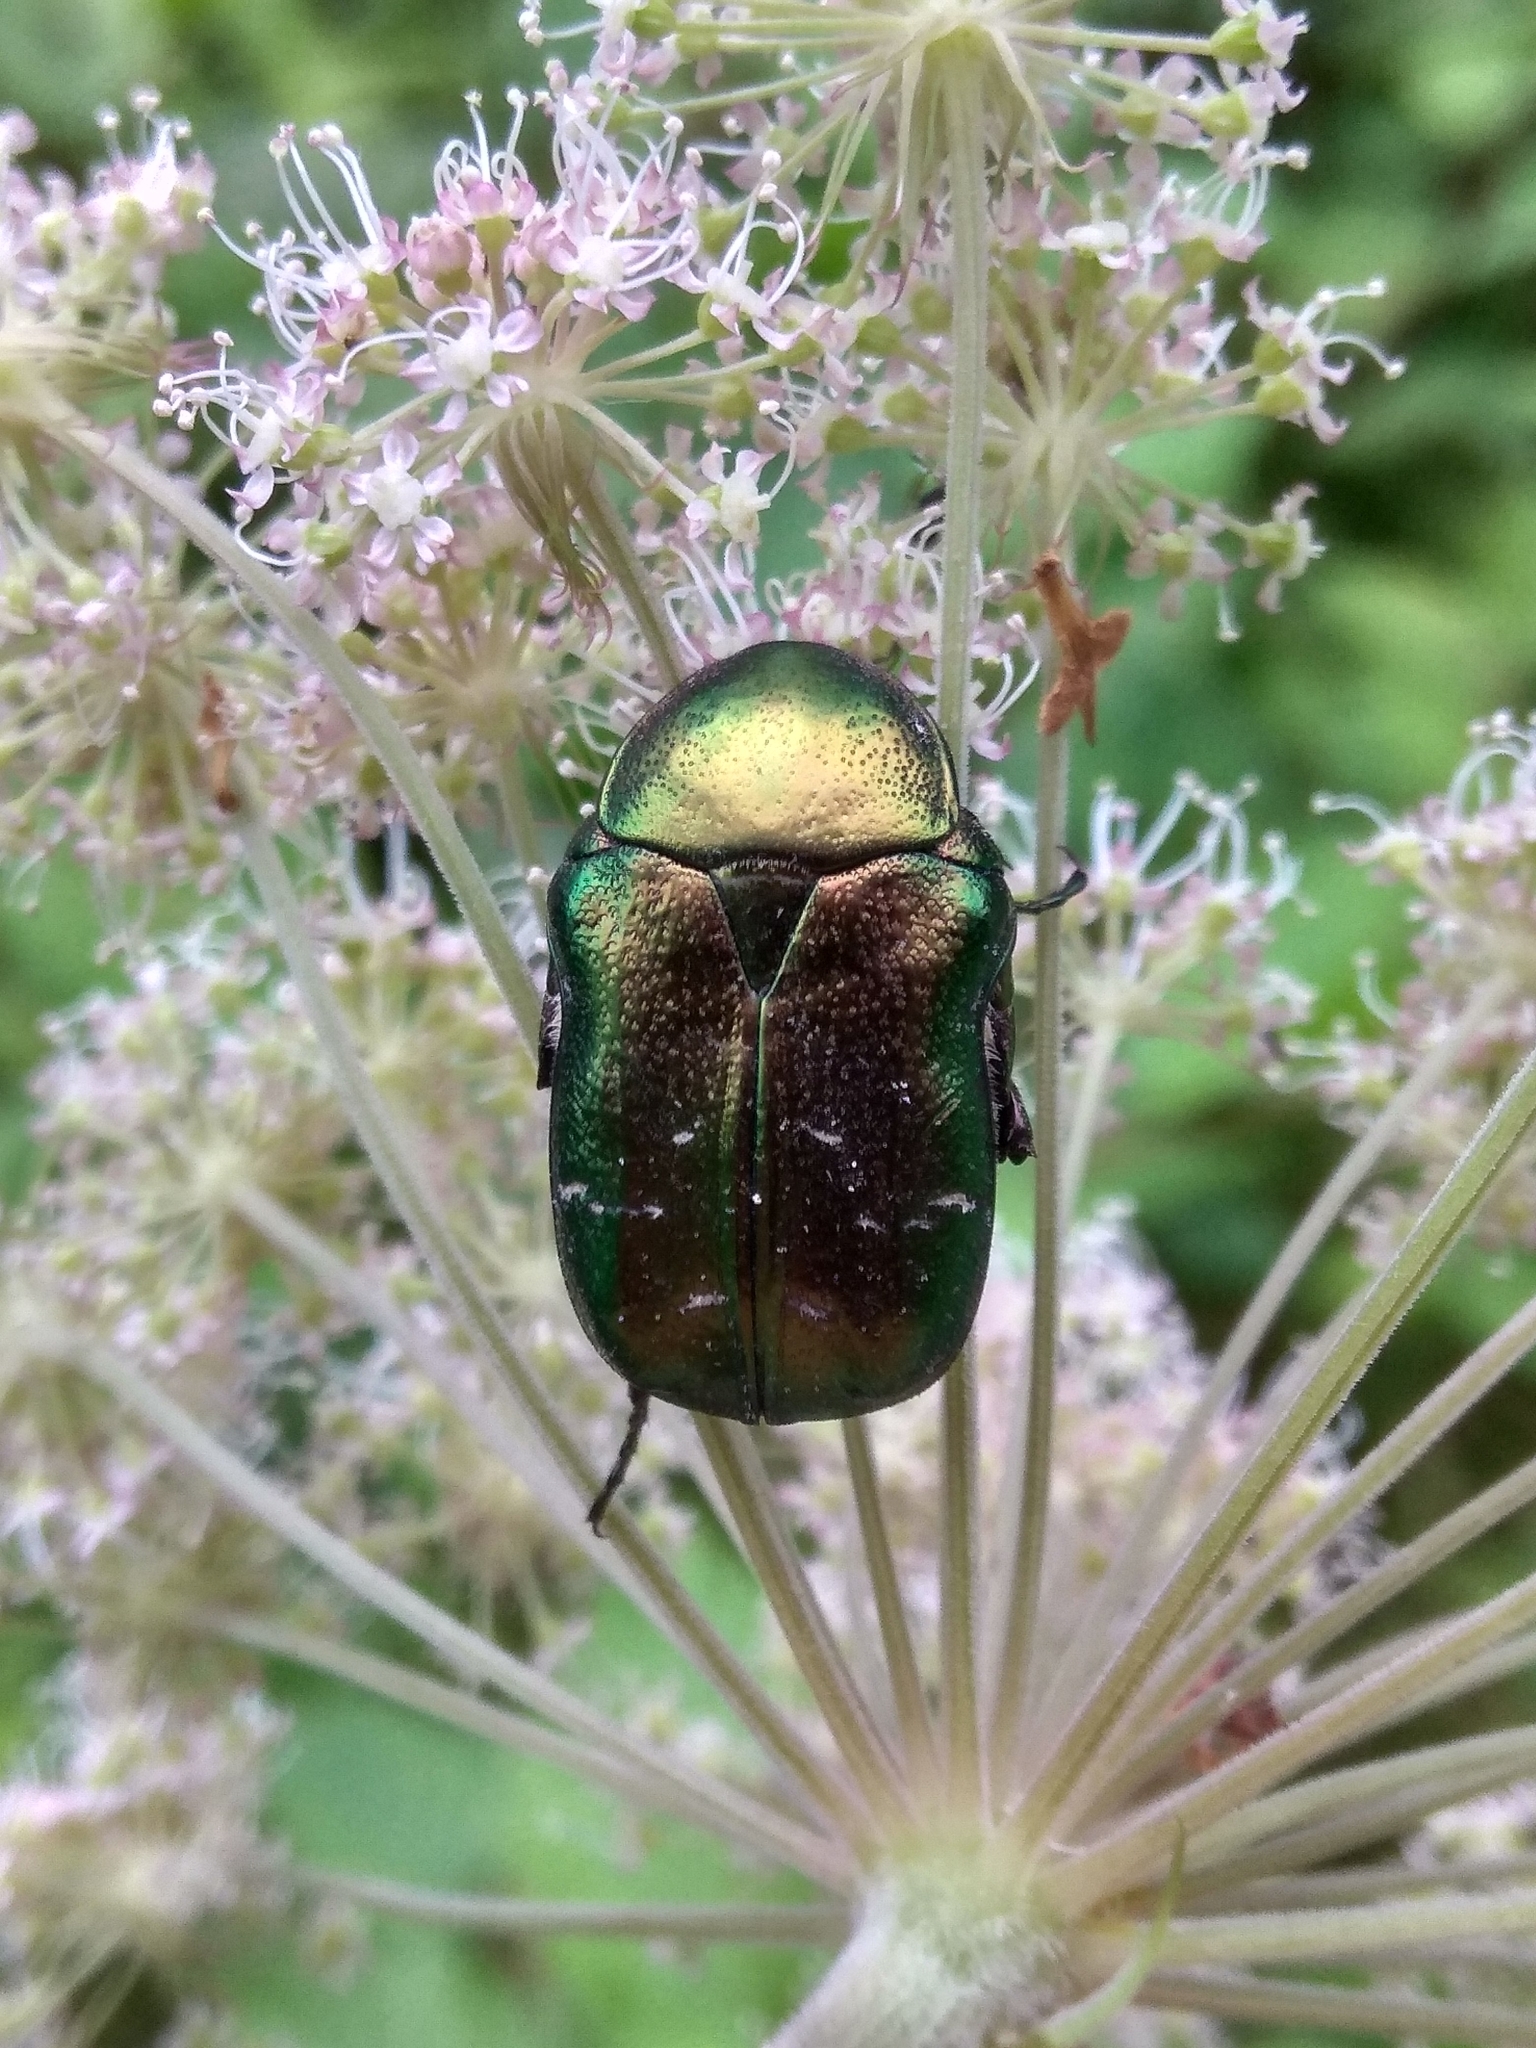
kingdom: Animalia
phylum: Arthropoda
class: Insecta
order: Coleoptera
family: Scarabaeidae
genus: Cetonia
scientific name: Cetonia aurata
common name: Rose chafer
